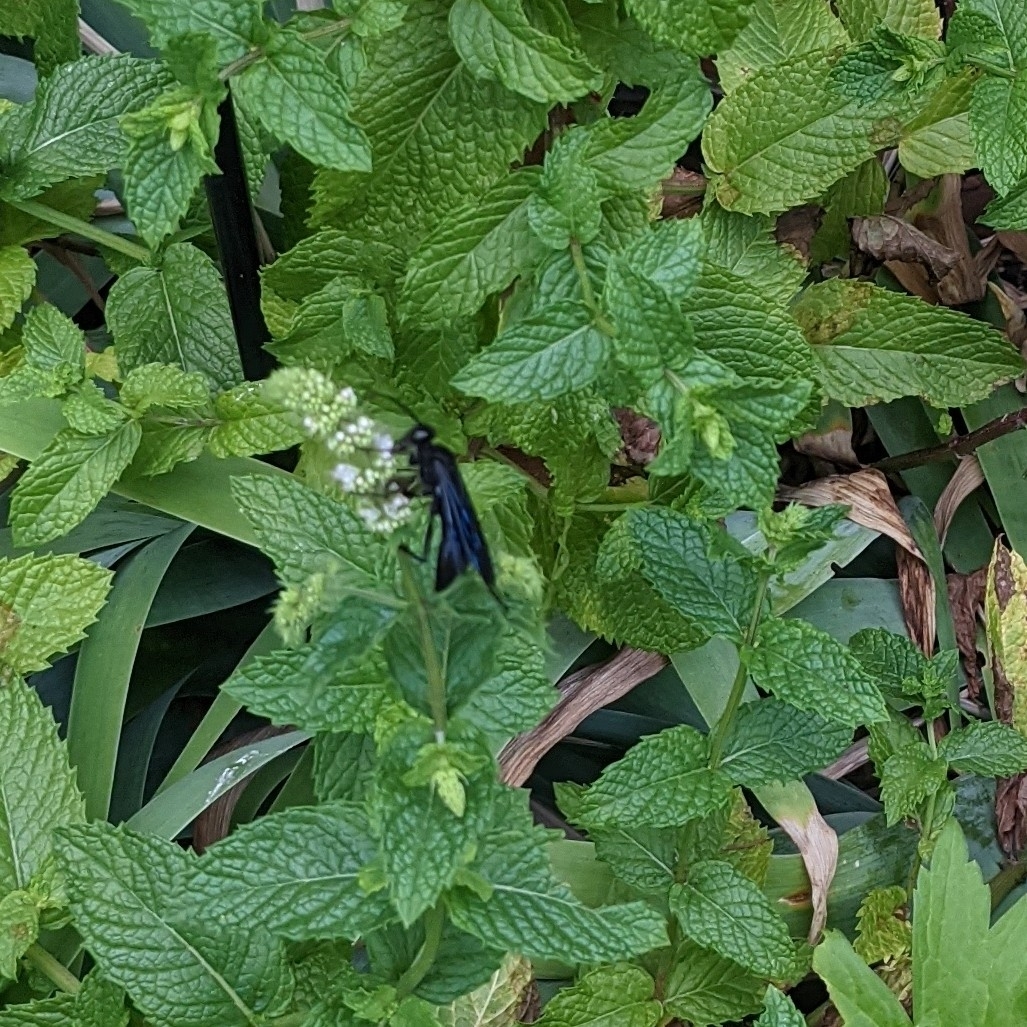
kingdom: Animalia
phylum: Arthropoda
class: Insecta
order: Hymenoptera
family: Sphecidae
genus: Sphex
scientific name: Sphex pensylvanicus
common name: Great black digger wasp
